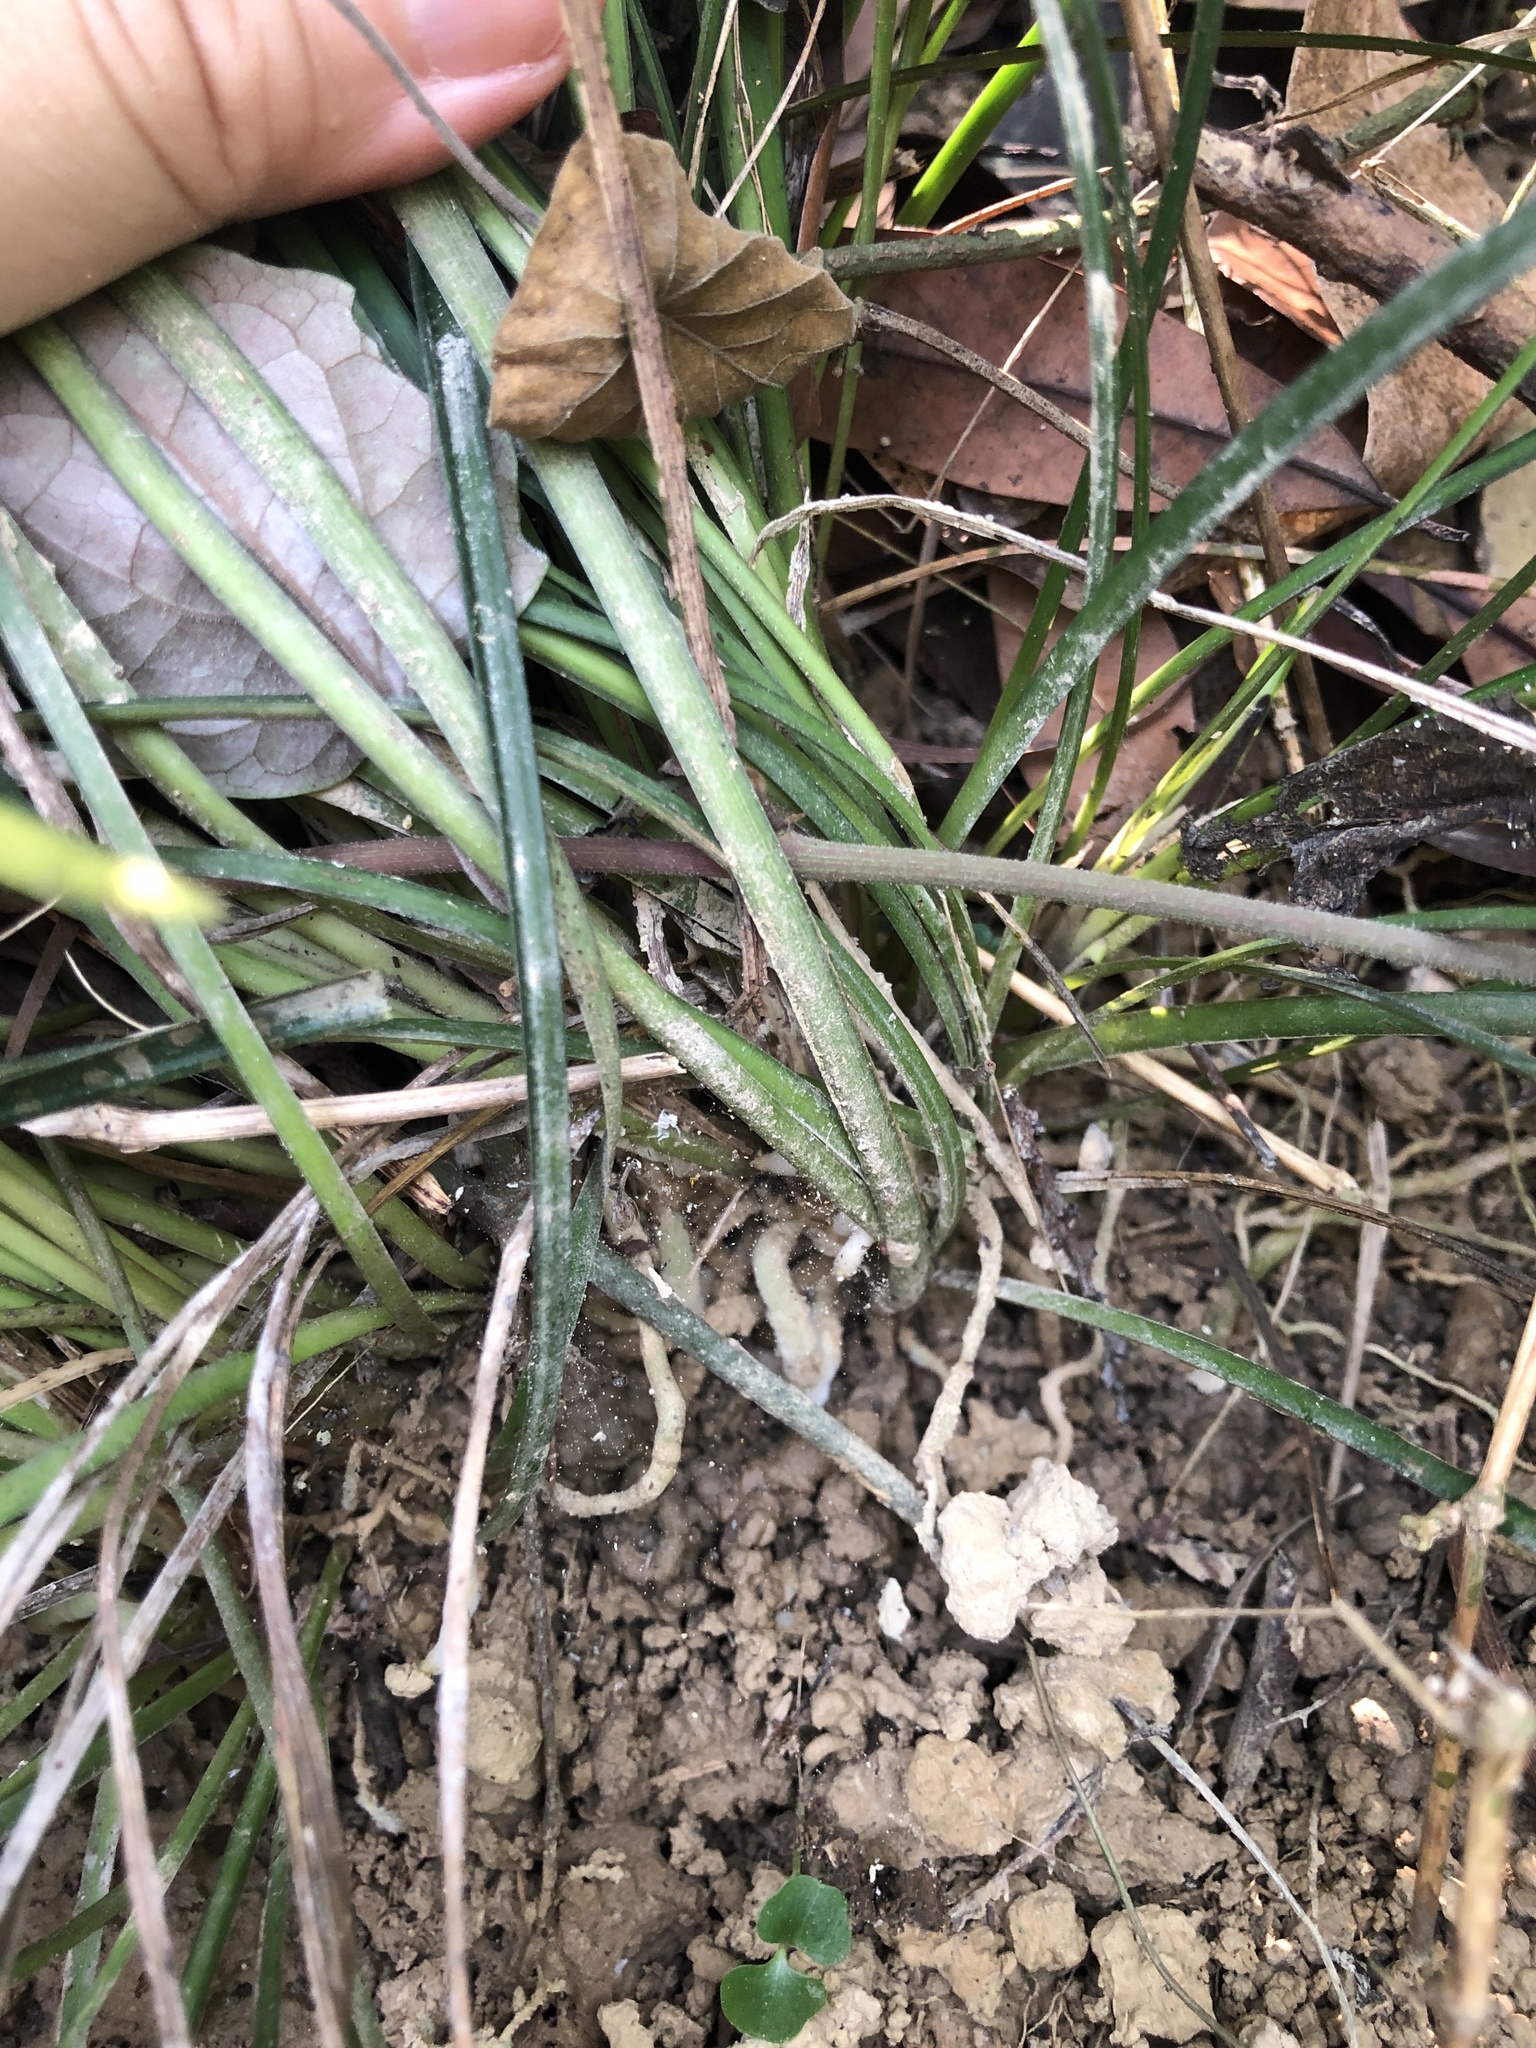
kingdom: Plantae
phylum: Tracheophyta
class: Liliopsida
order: Asparagales
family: Asparagaceae
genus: Ophiopogon
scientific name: Ophiopogon reversus
